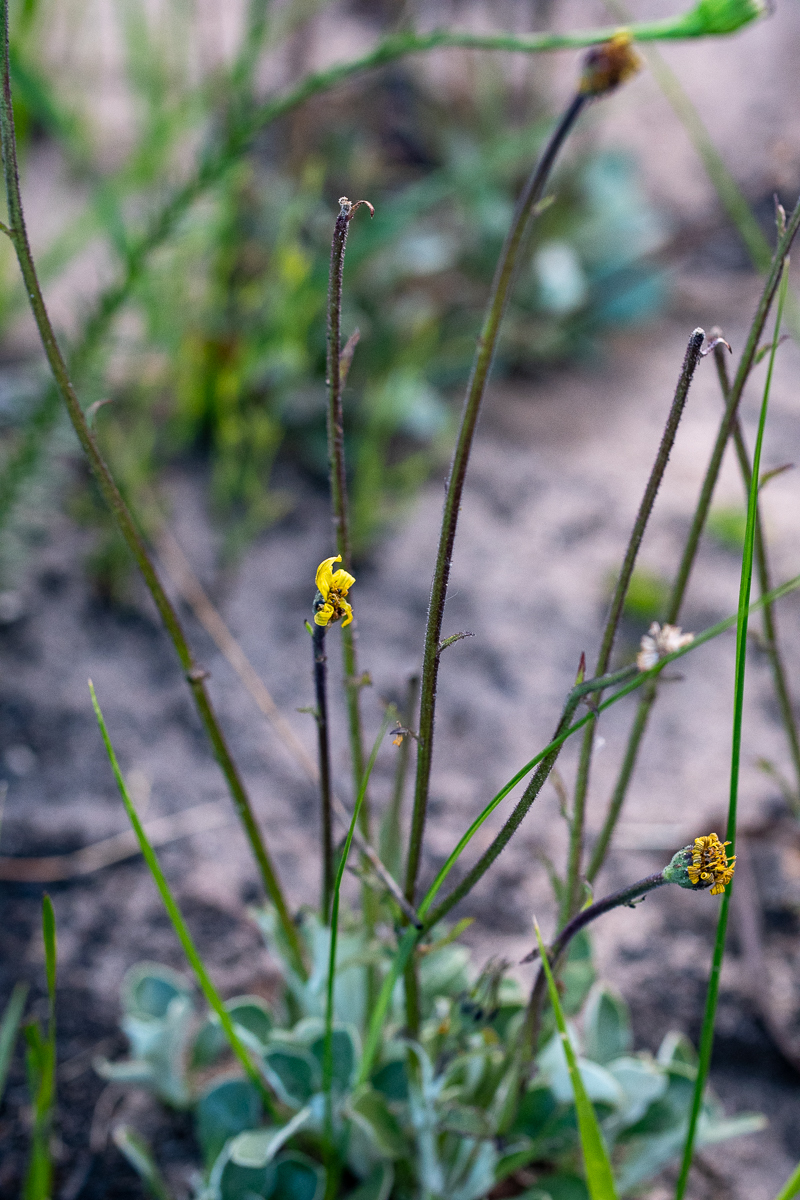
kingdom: Plantae
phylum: Tracheophyta
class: Magnoliopsida
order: Asterales
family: Asteraceae
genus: Capelio
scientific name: Capelio caledonica
